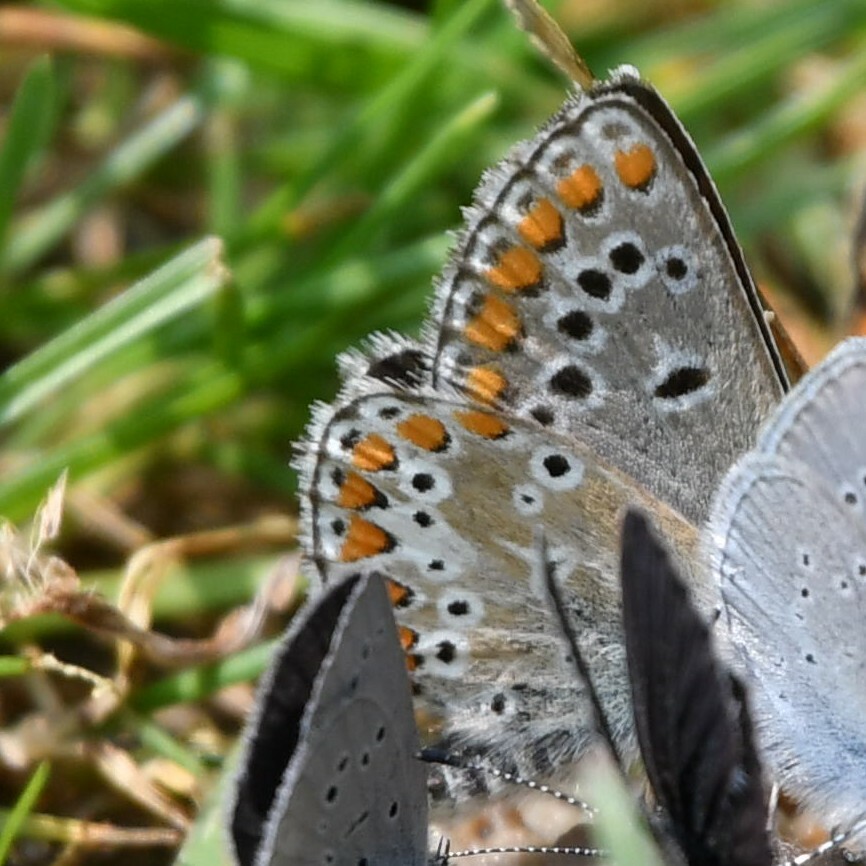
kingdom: Animalia
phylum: Arthropoda
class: Insecta
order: Lepidoptera
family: Lycaenidae
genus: Aricia
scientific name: Aricia artaxerxes
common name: Northern brown argus
